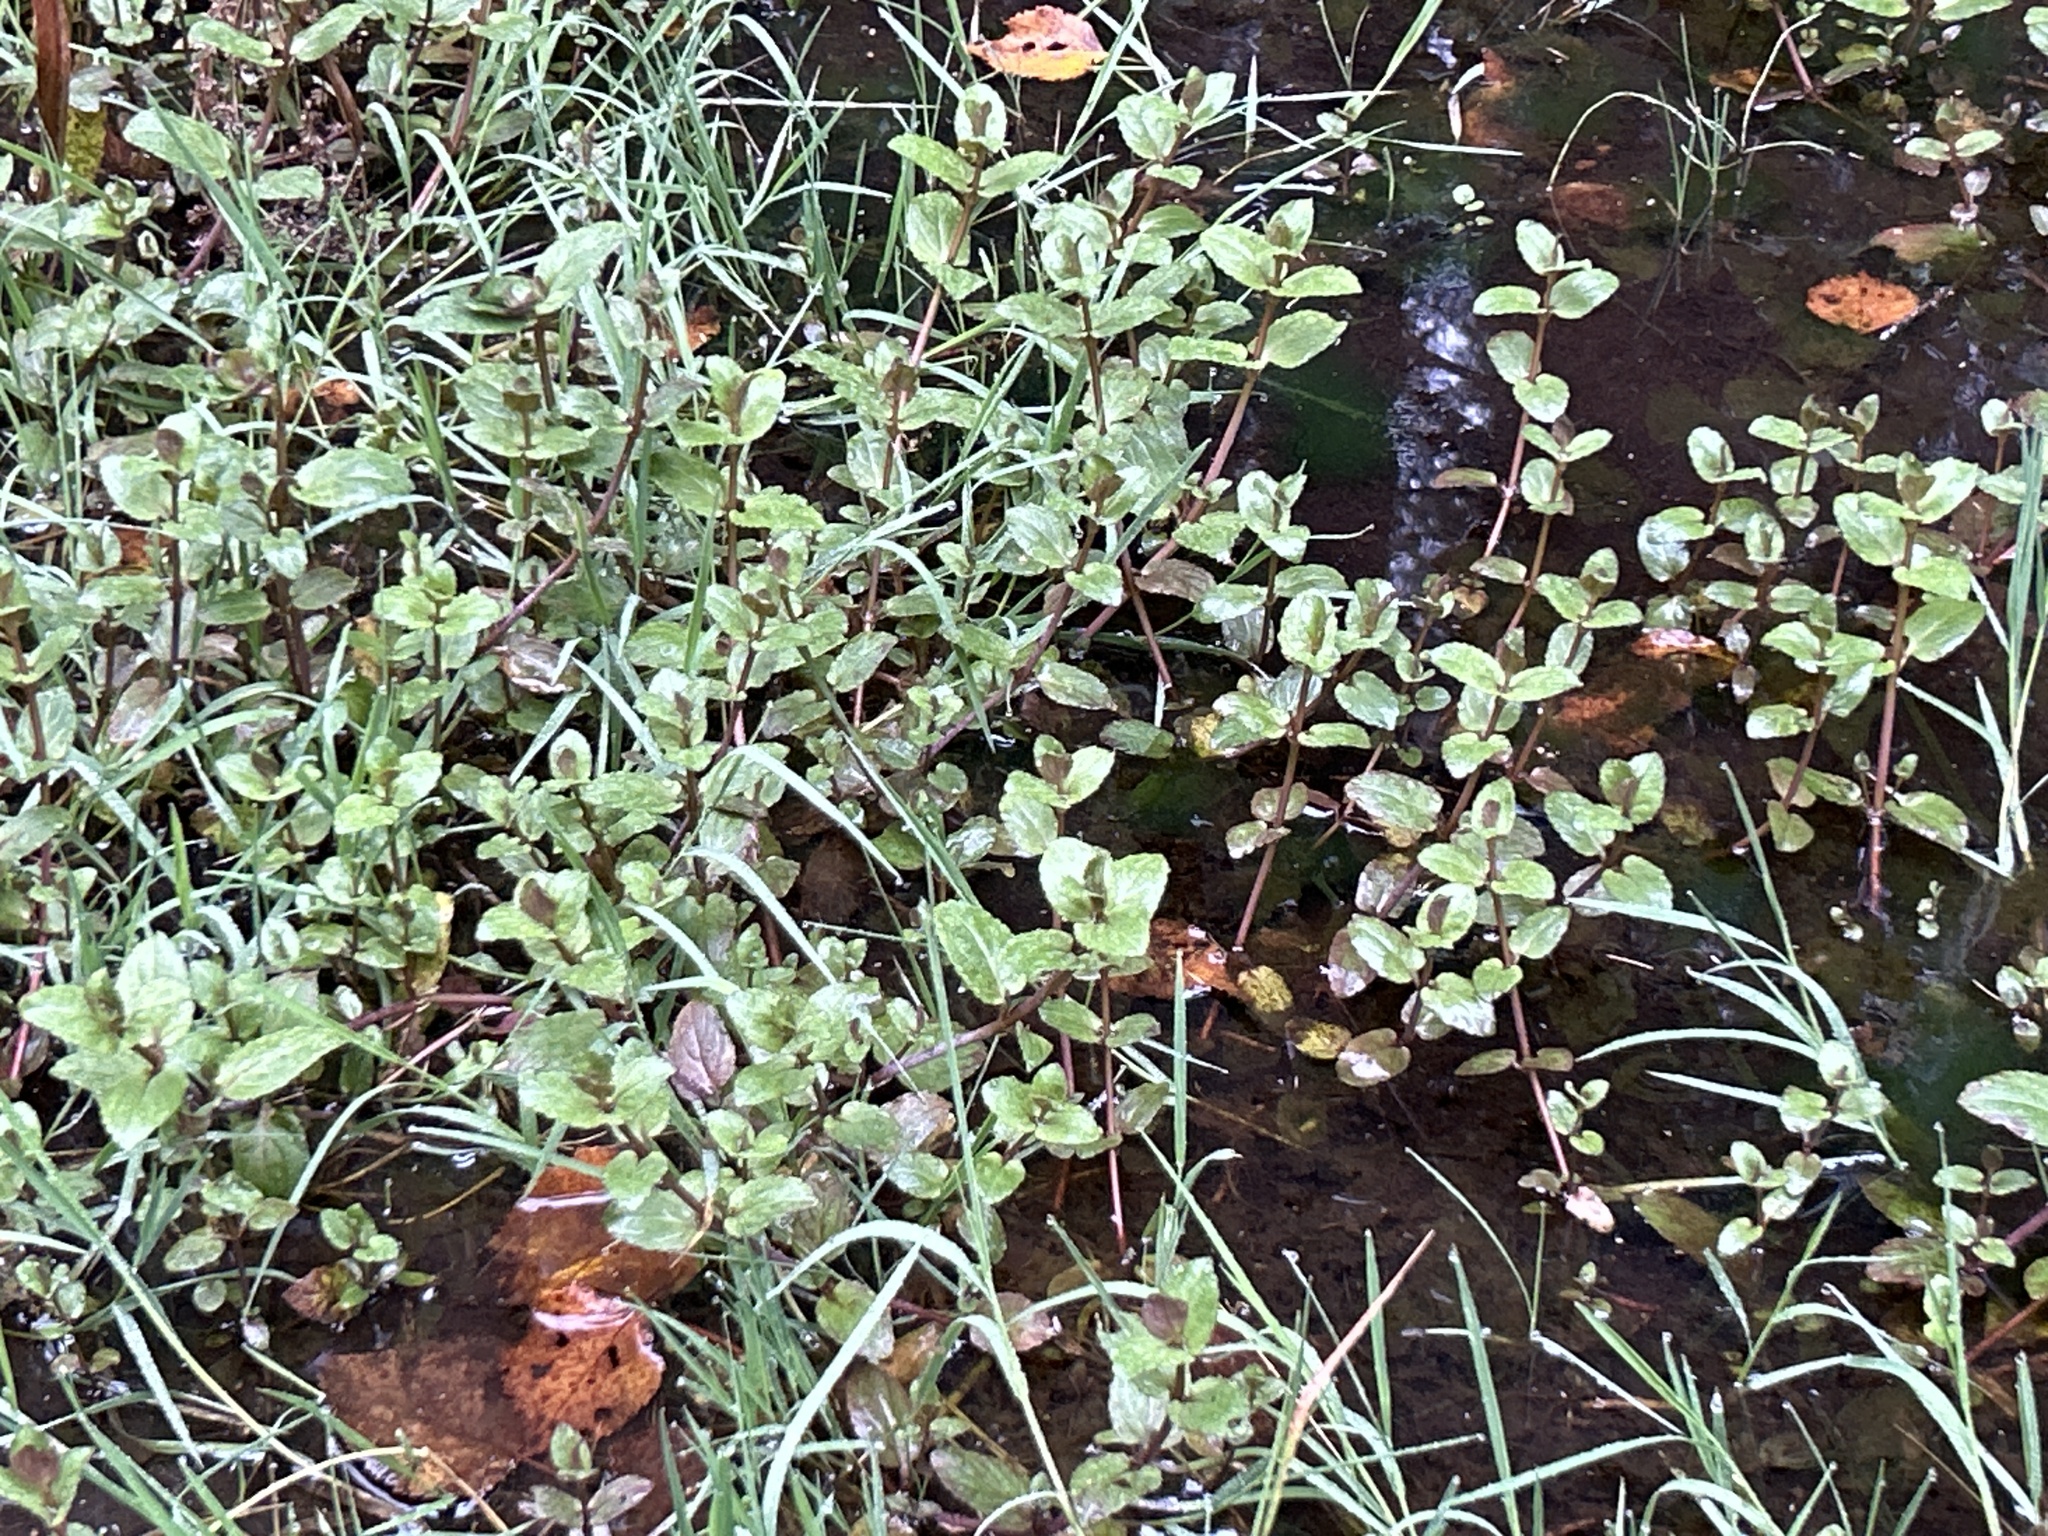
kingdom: Plantae
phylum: Tracheophyta
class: Magnoliopsida
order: Lamiales
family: Plantaginaceae
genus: Veronica
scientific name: Veronica americana
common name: American brooklime
